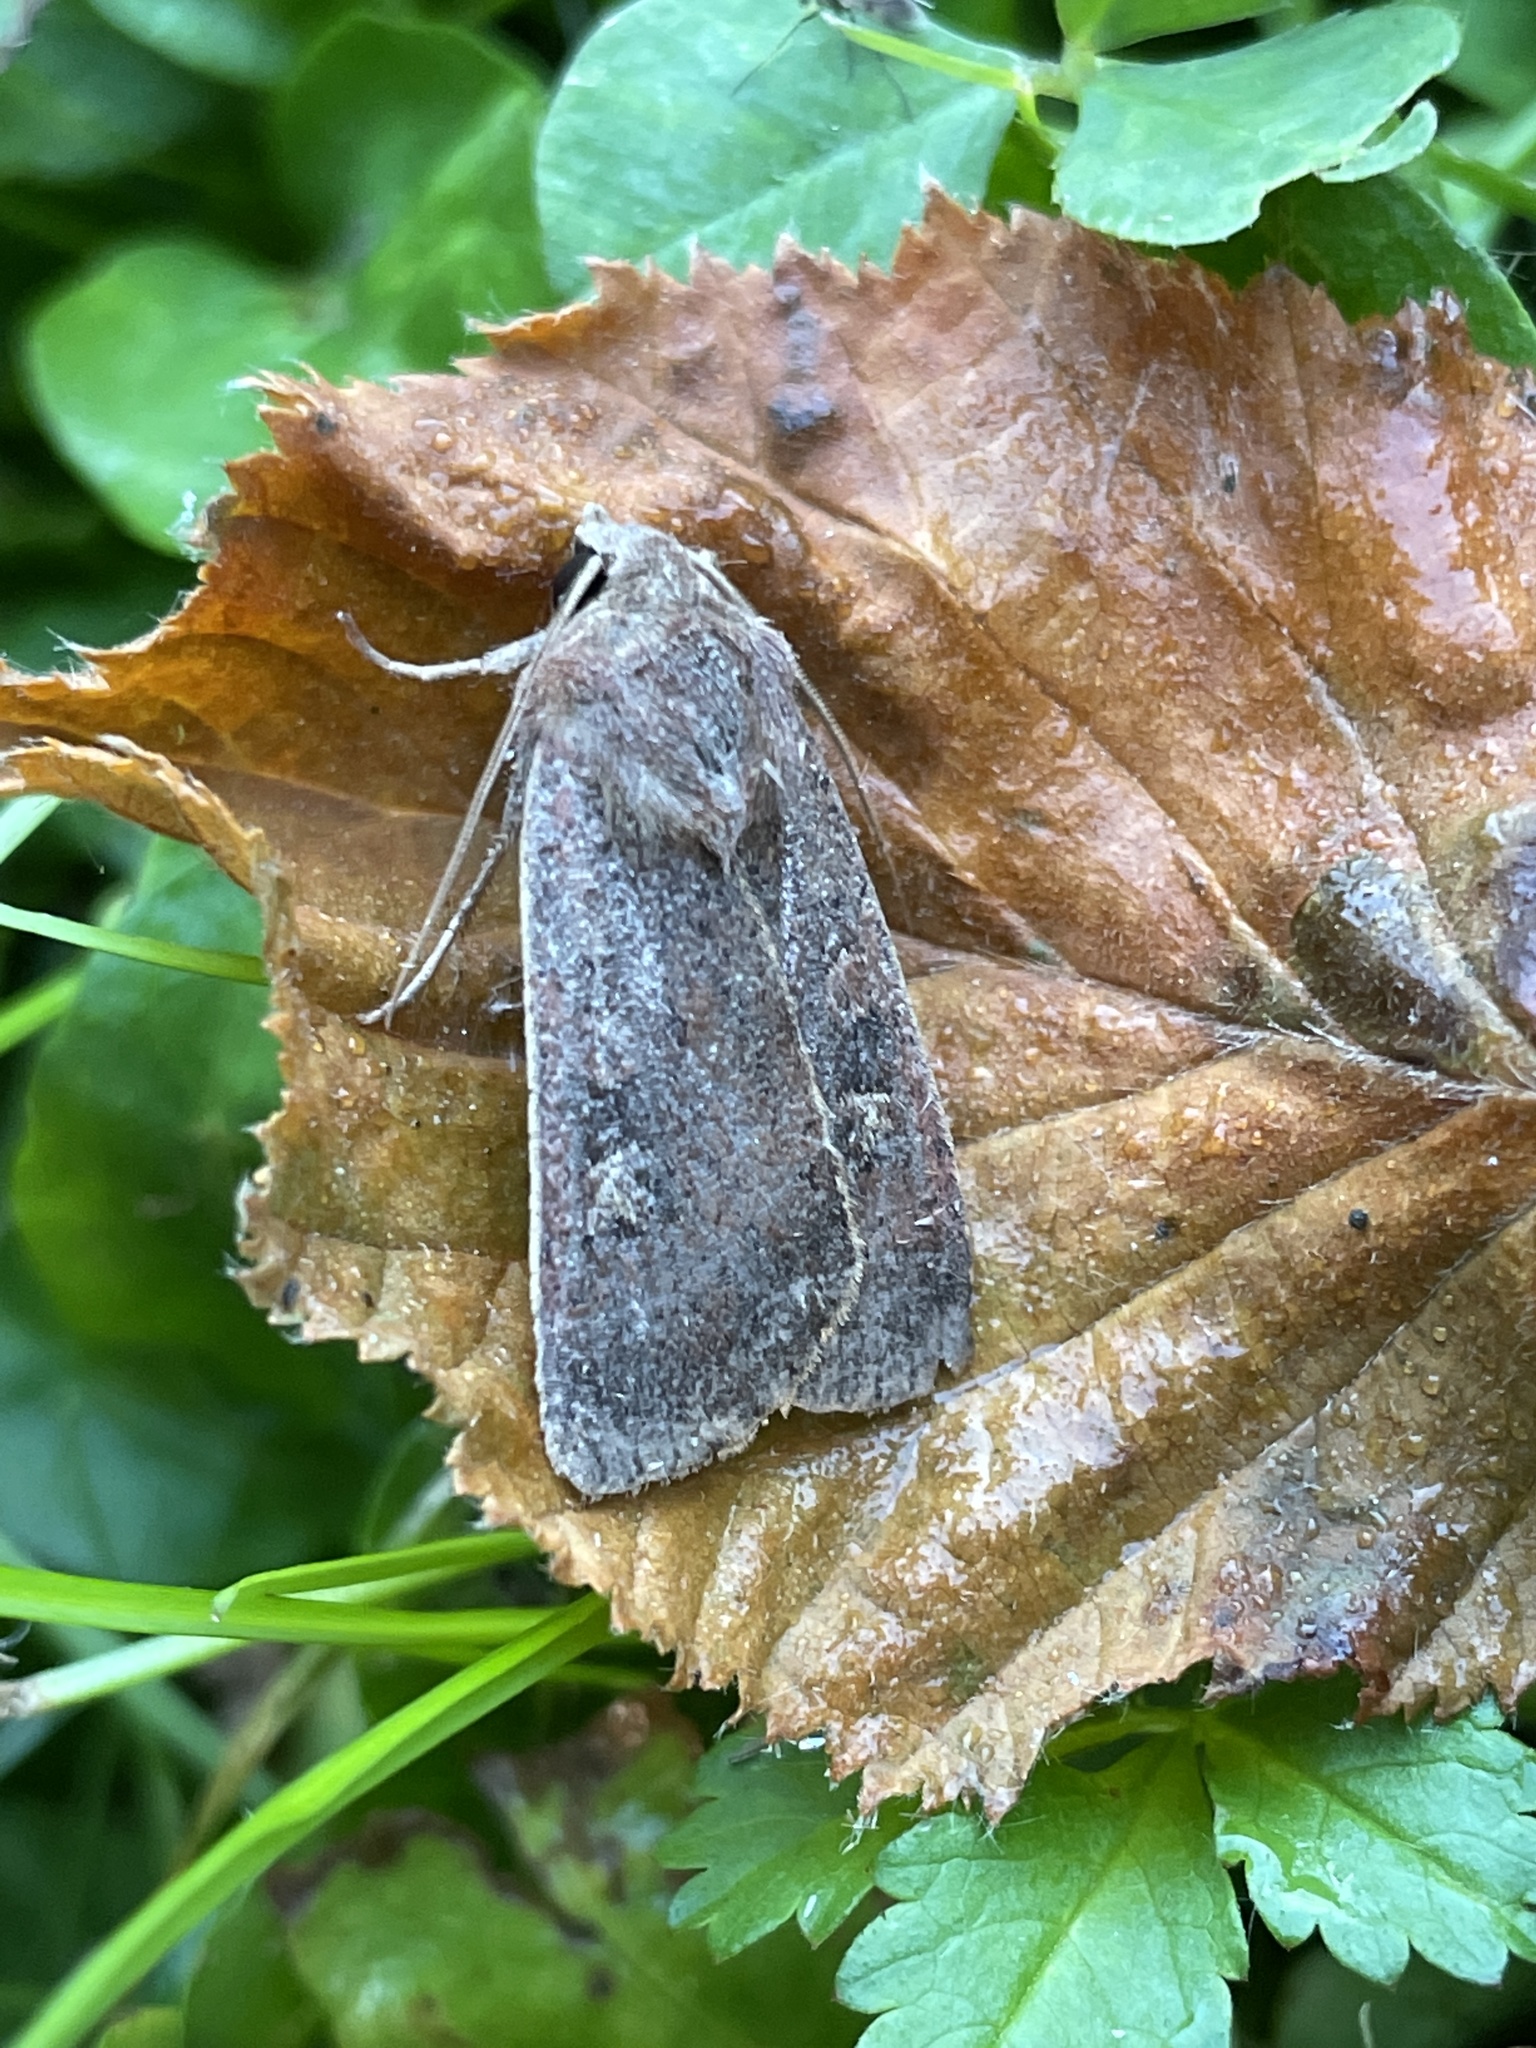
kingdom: Animalia
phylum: Arthropoda
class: Insecta
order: Lepidoptera
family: Noctuidae
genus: Xestia
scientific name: Xestia xanthographa
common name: Square-spot rustic
